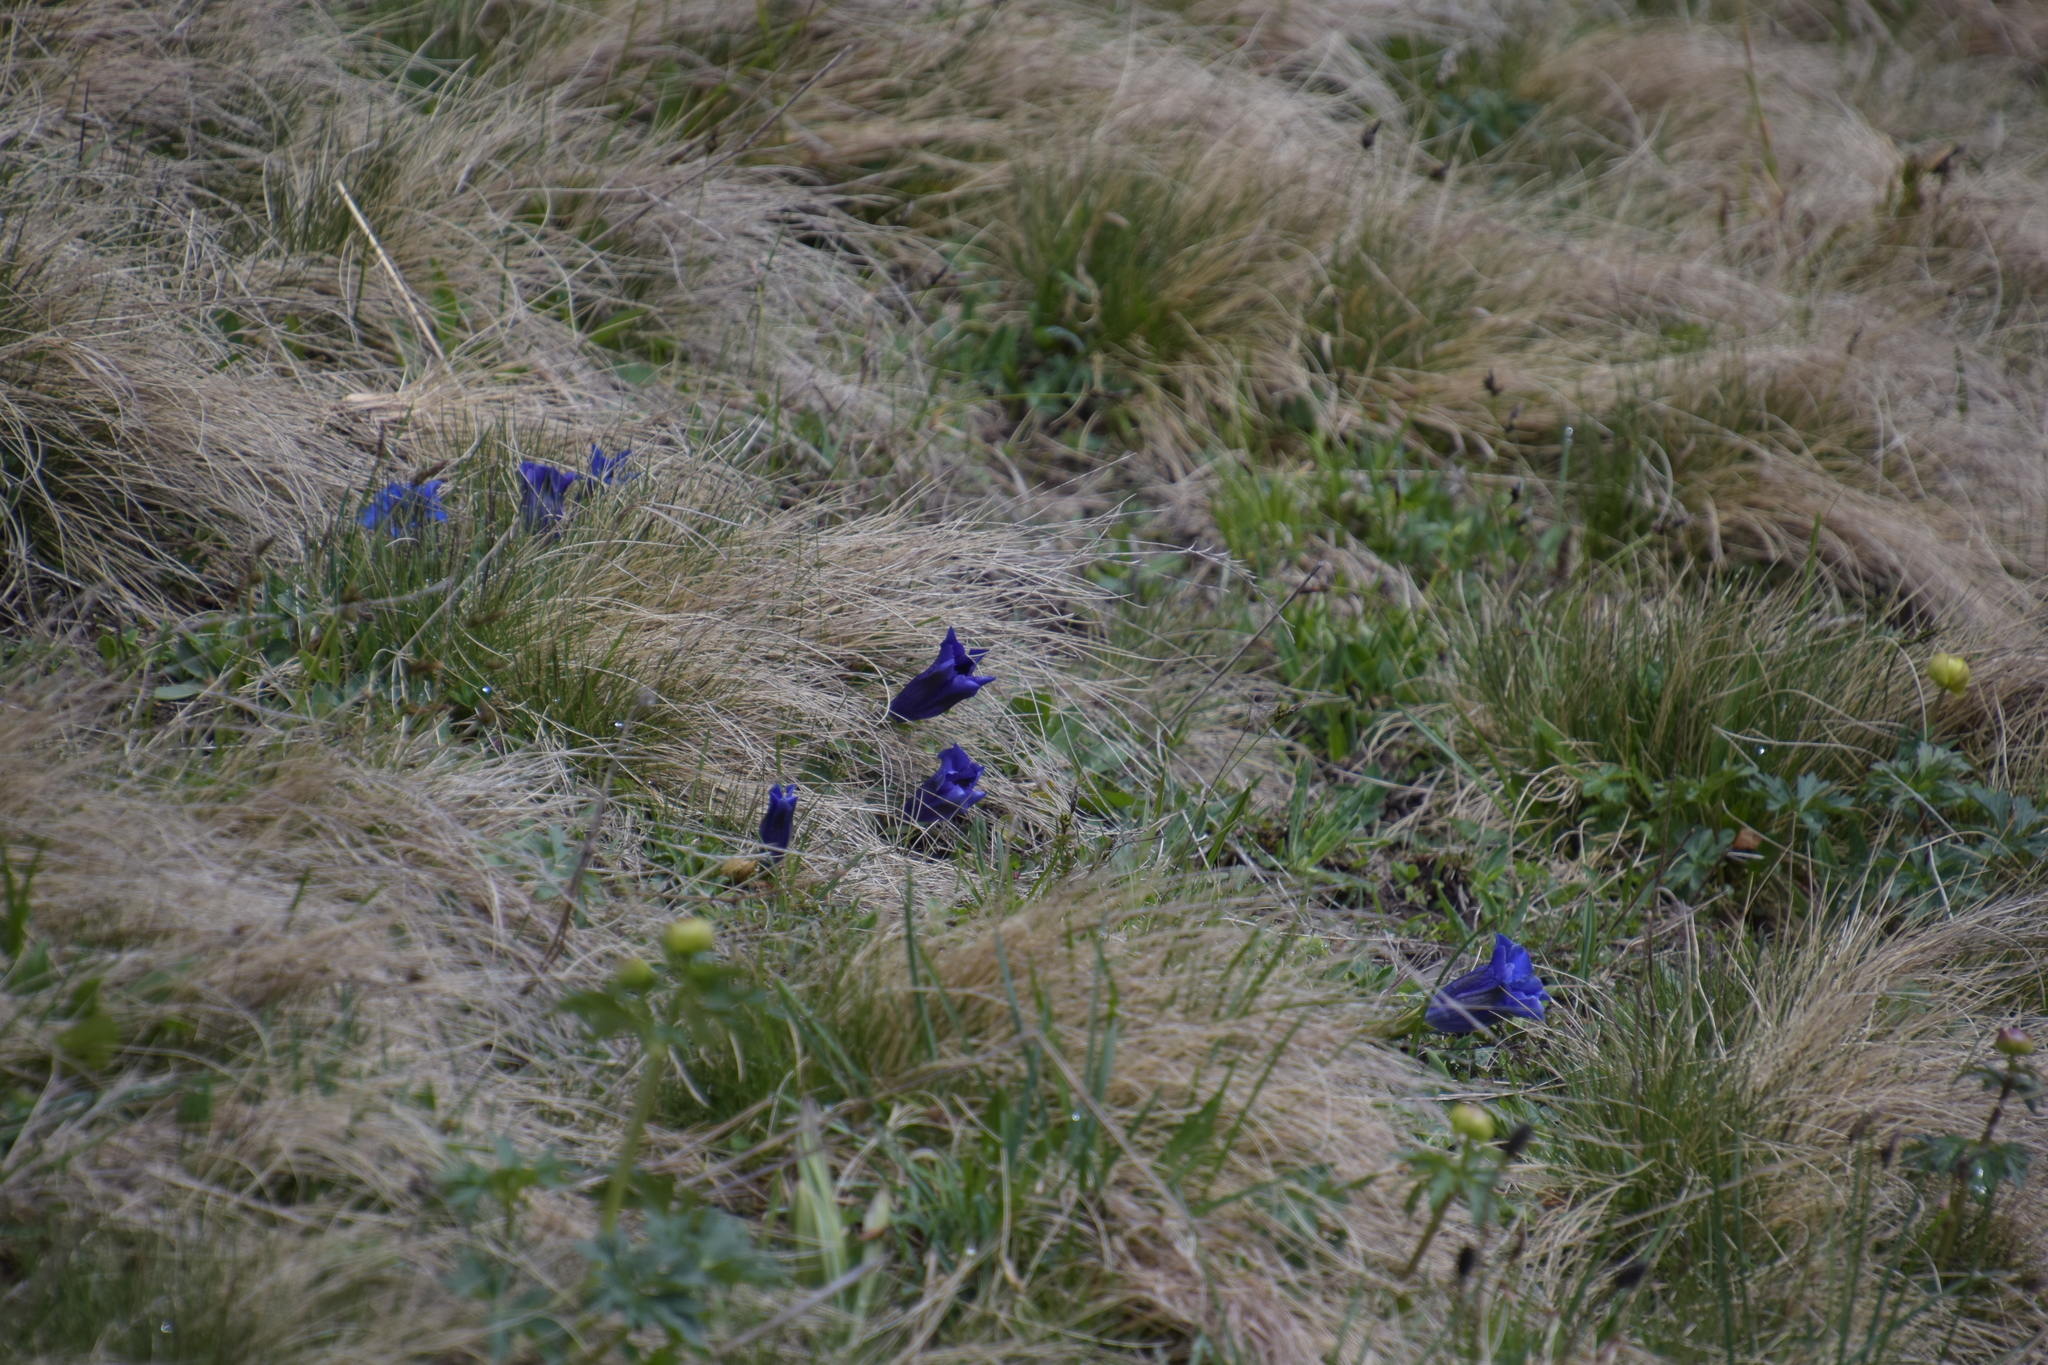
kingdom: Plantae
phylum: Tracheophyta
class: Magnoliopsida
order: Gentianales
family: Gentianaceae
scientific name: Gentianaceae
